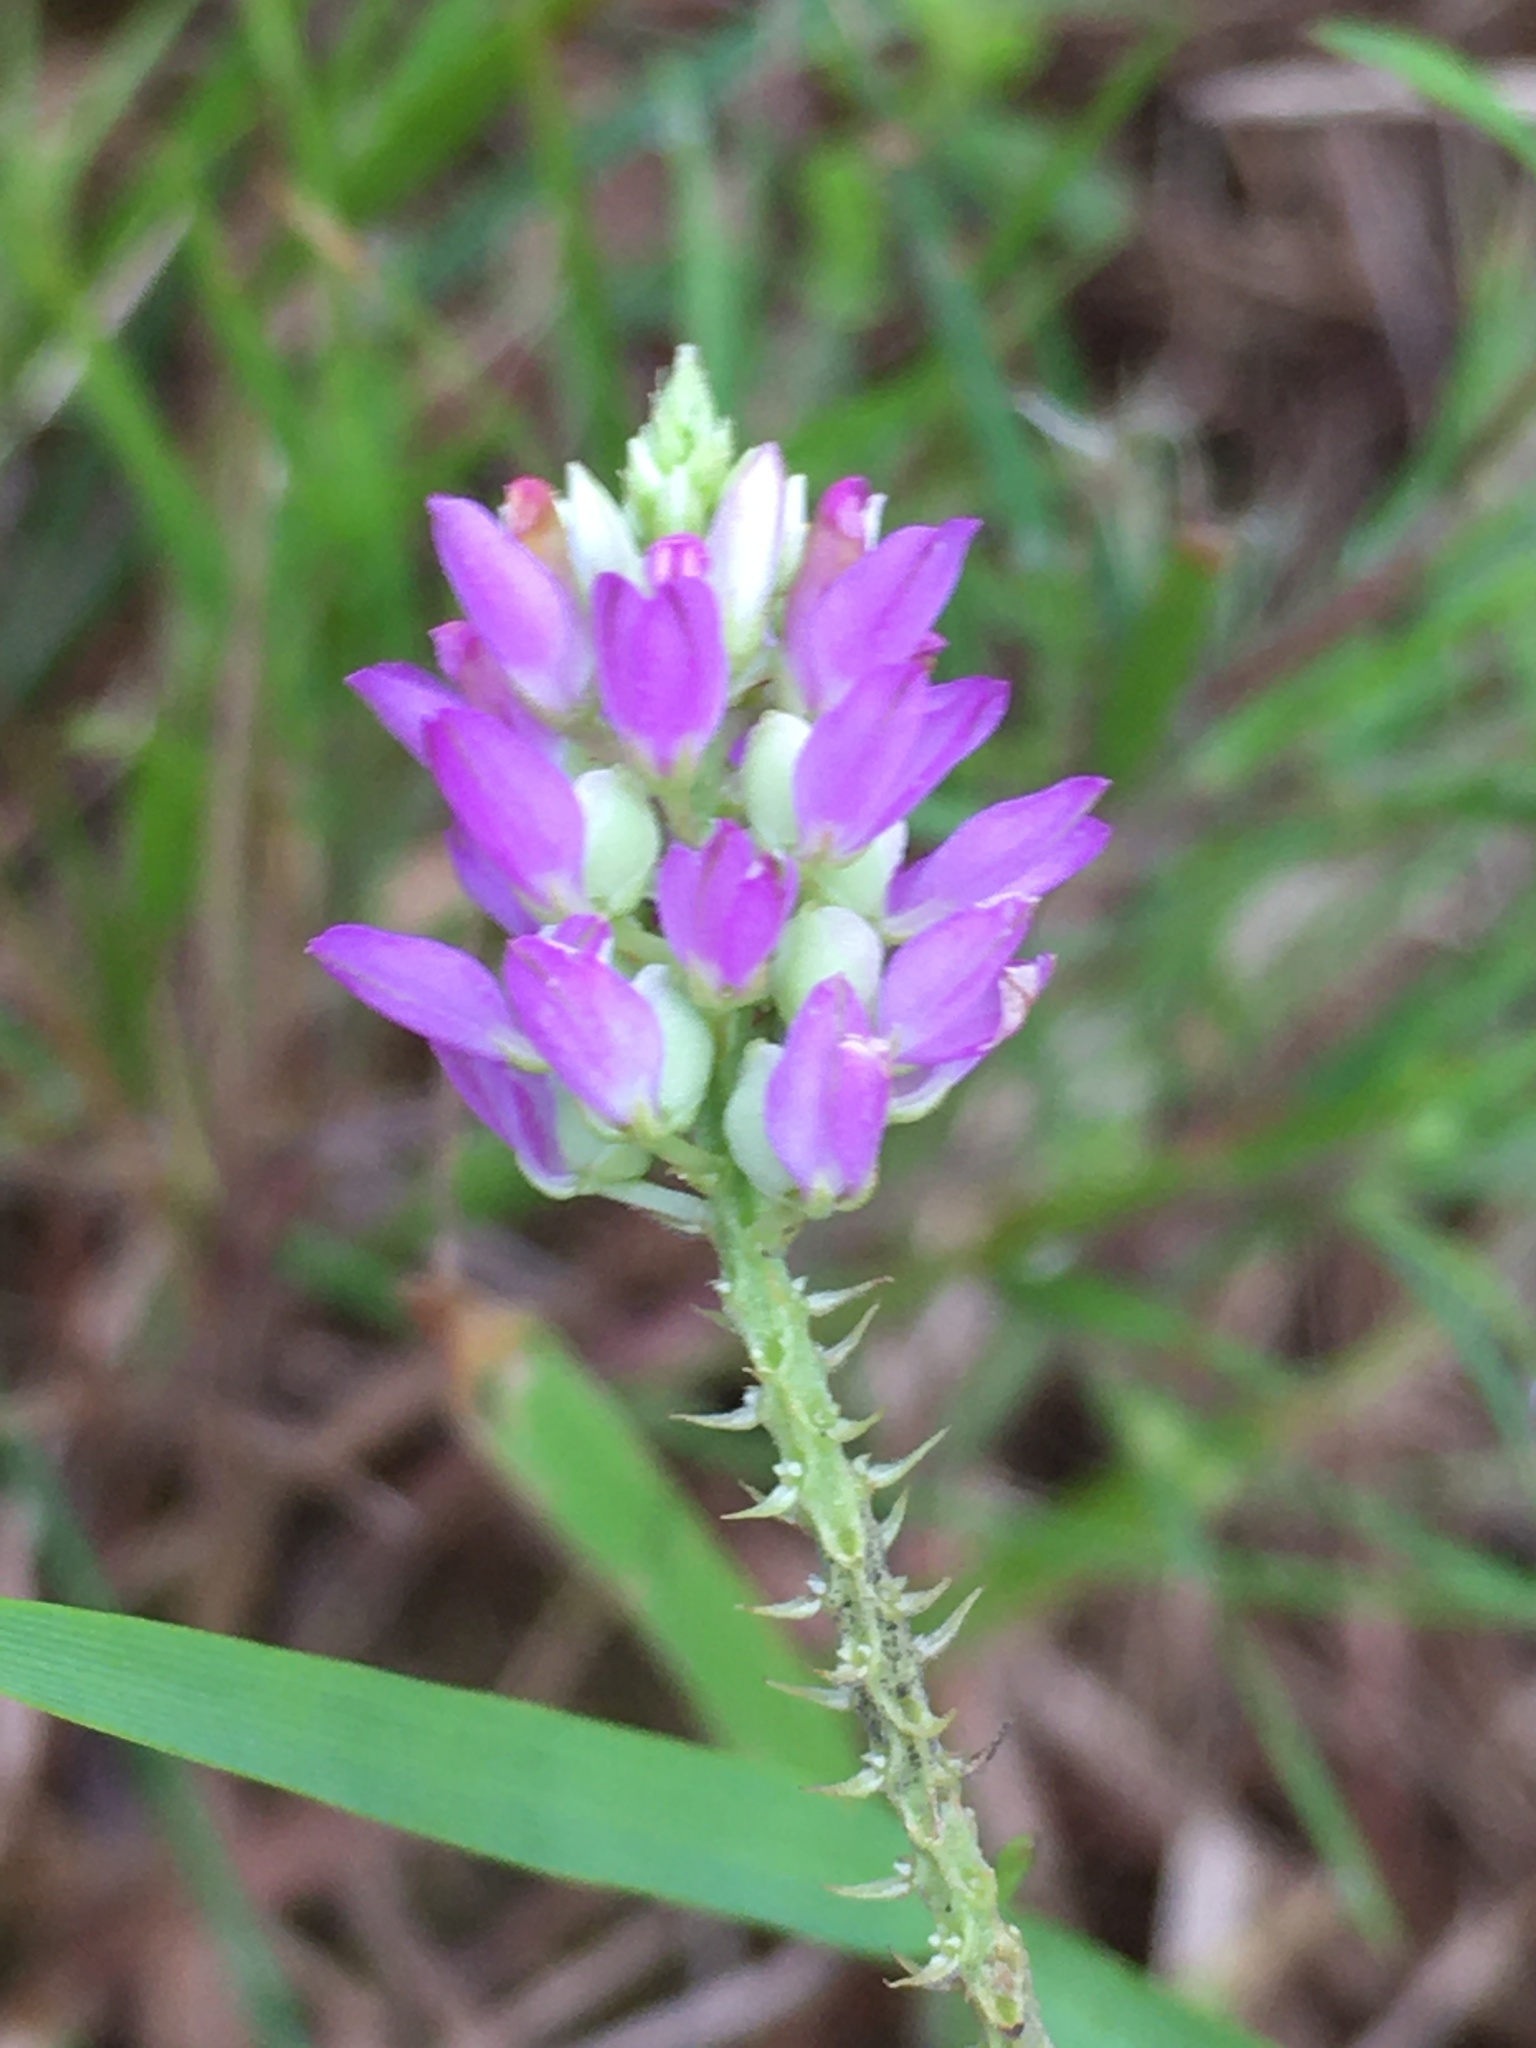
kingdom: Plantae
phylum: Tracheophyta
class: Magnoliopsida
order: Fabales
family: Polygalaceae
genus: Polygala
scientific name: Polygala curtissii
